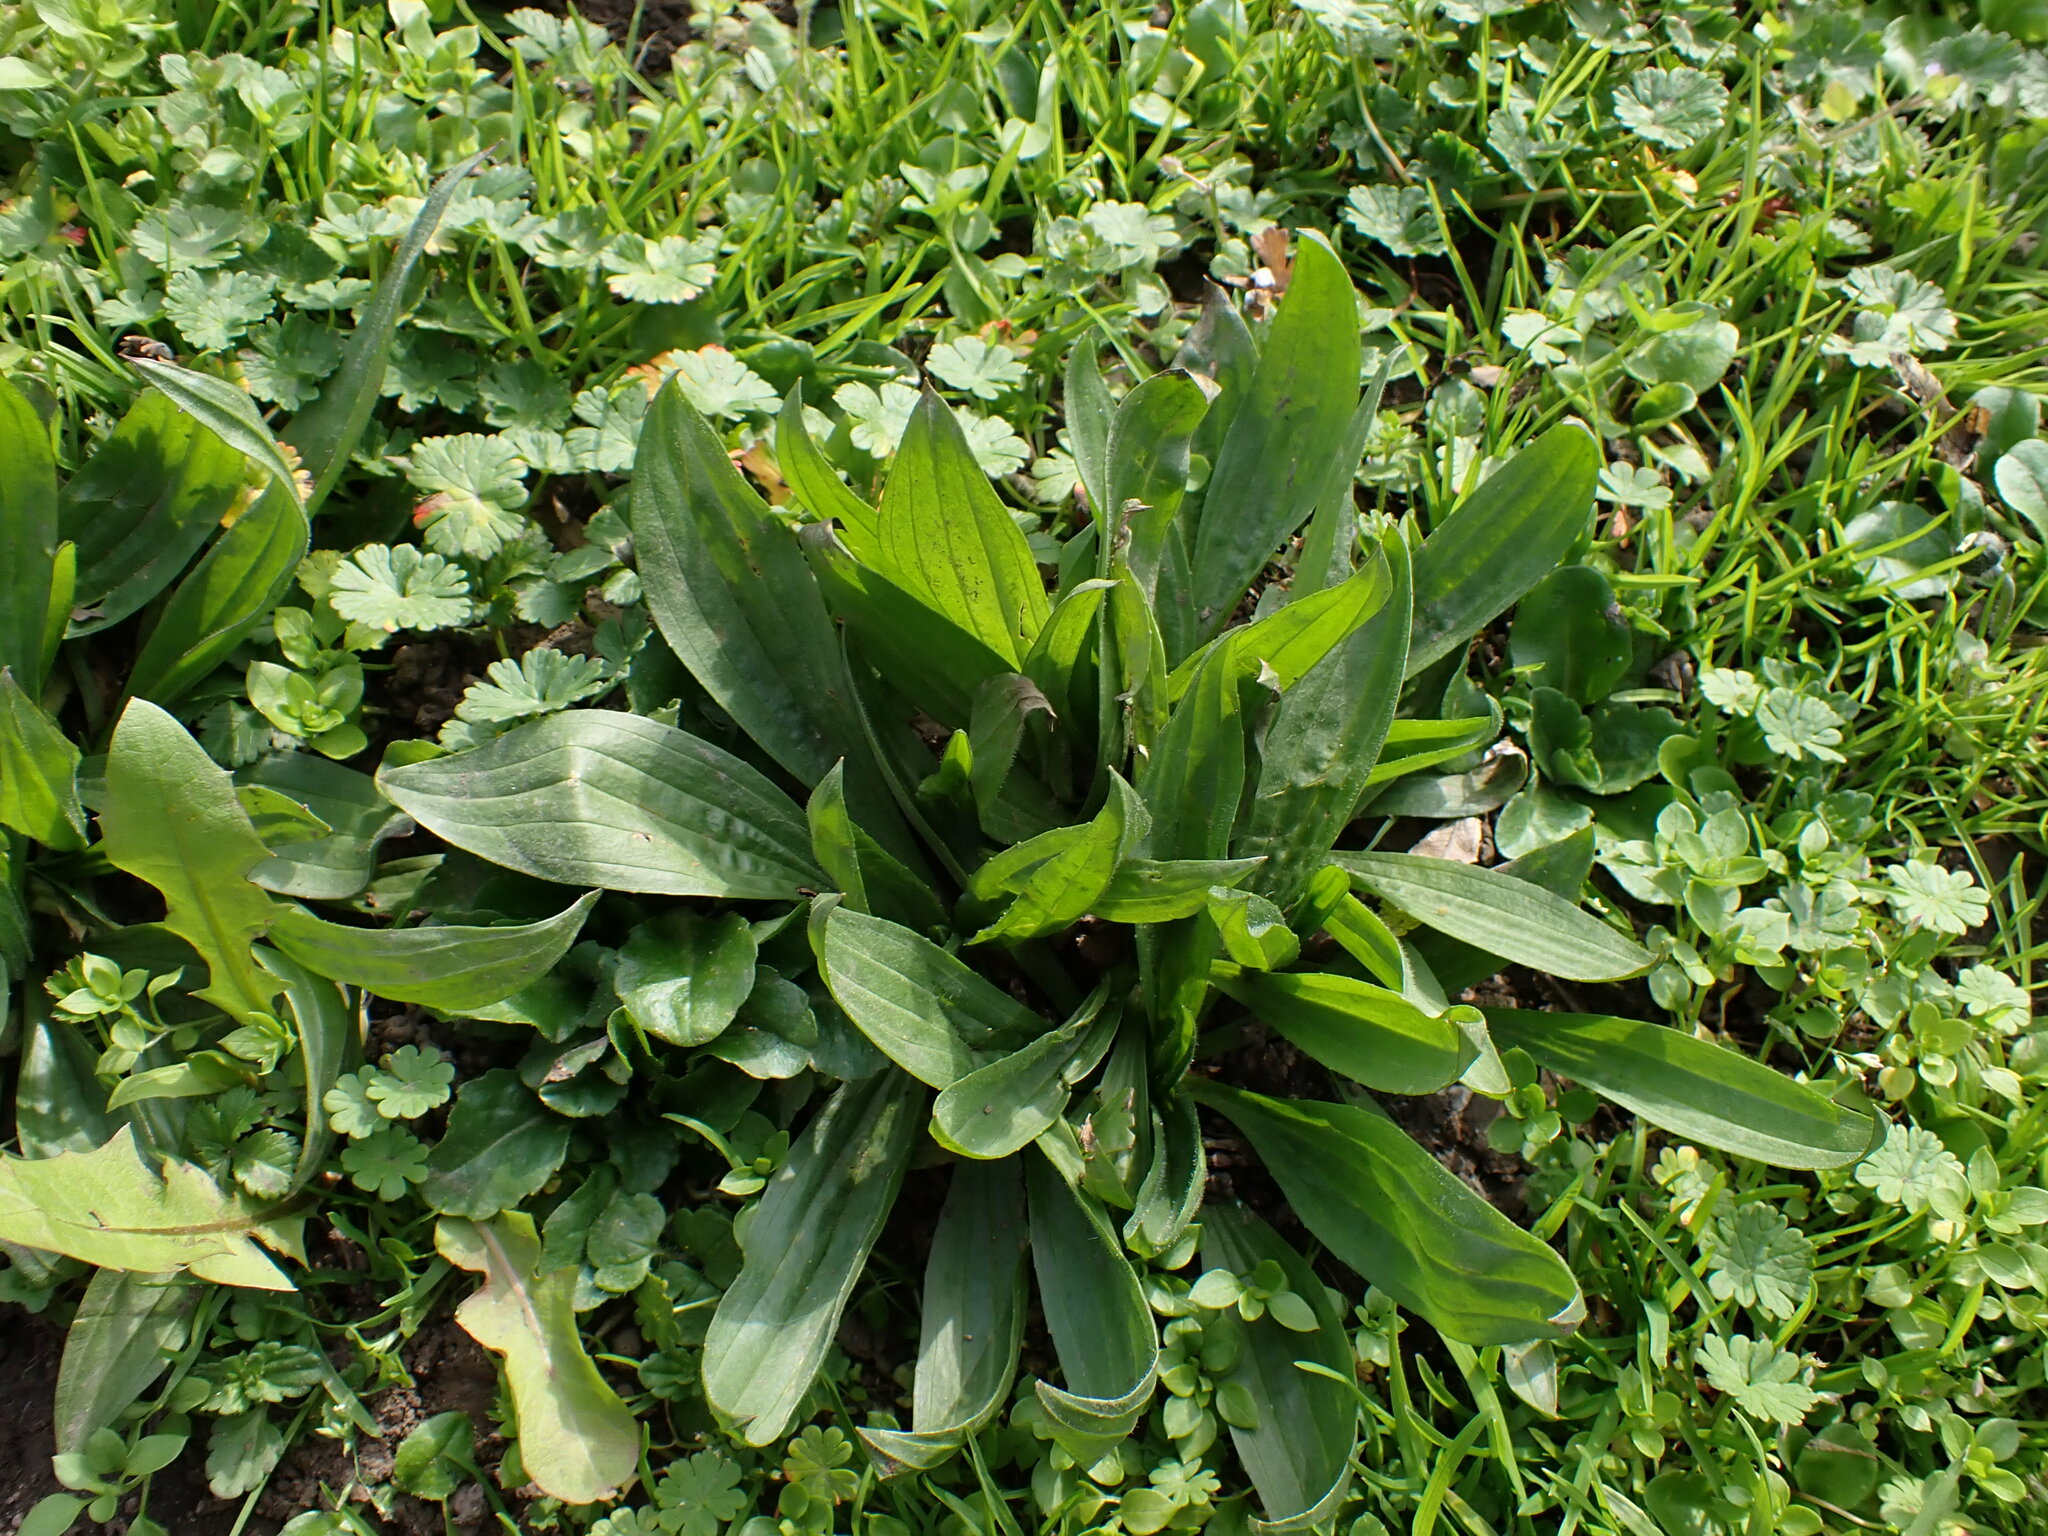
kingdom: Plantae
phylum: Tracheophyta
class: Magnoliopsida
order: Lamiales
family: Plantaginaceae
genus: Plantago
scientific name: Plantago lanceolata
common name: Ribwort plantain
